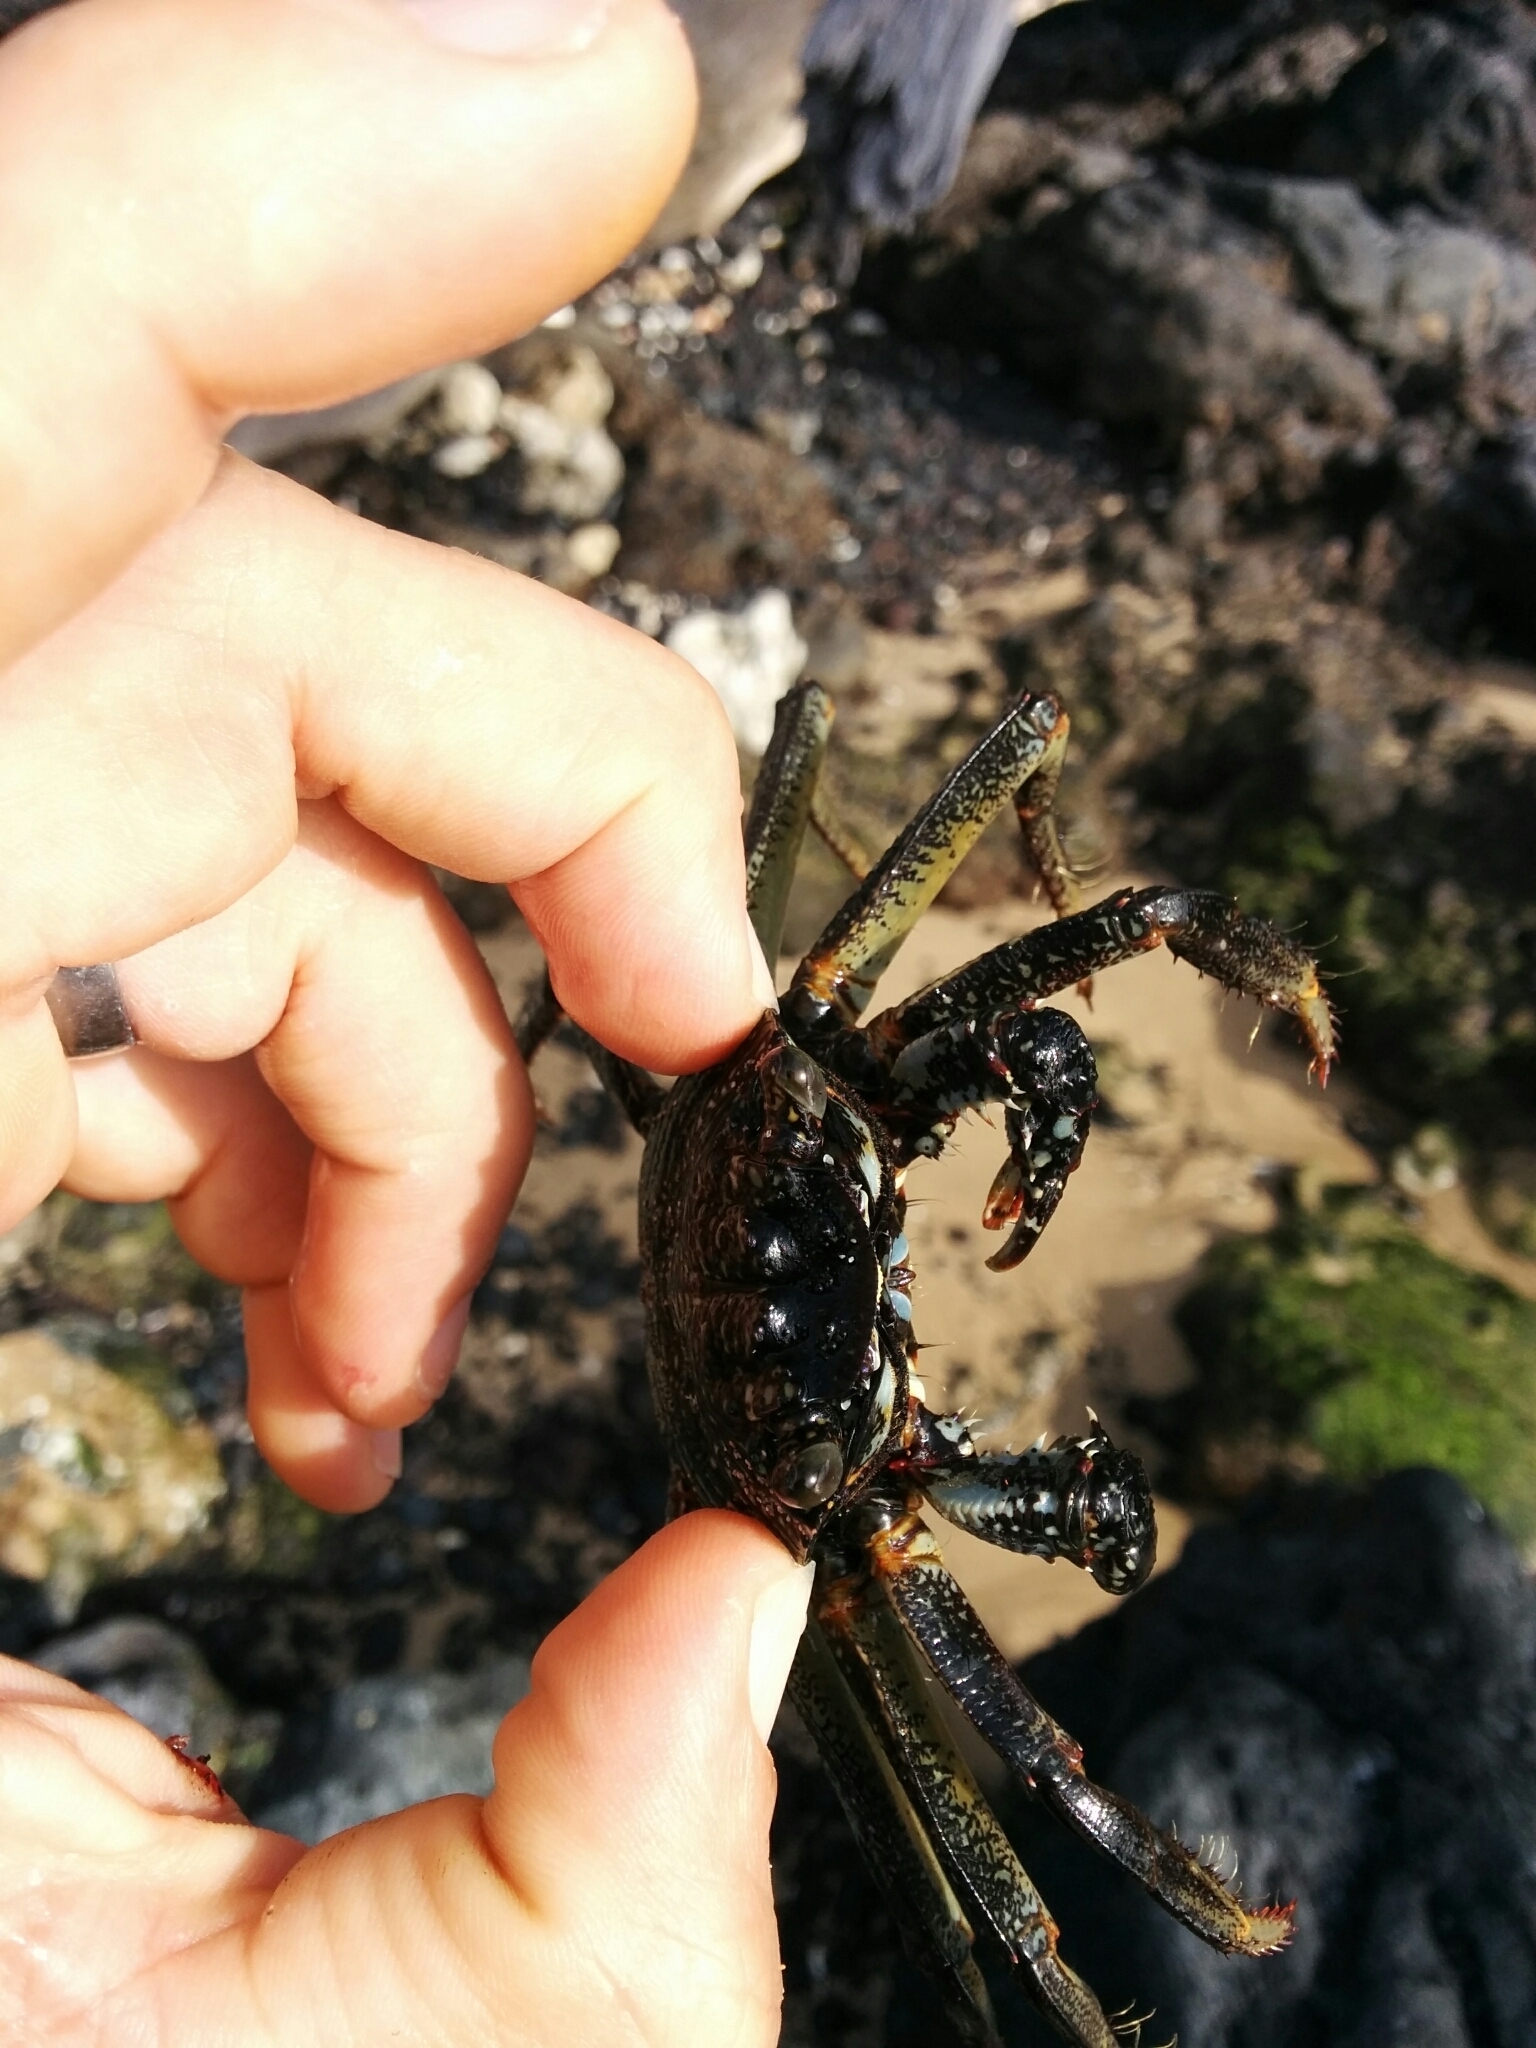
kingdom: Animalia
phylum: Arthropoda
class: Malacostraca
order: Decapoda
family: Grapsidae
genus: Grapsus
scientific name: Grapsus tenuicrustatus
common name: Natal lightfoot crab
